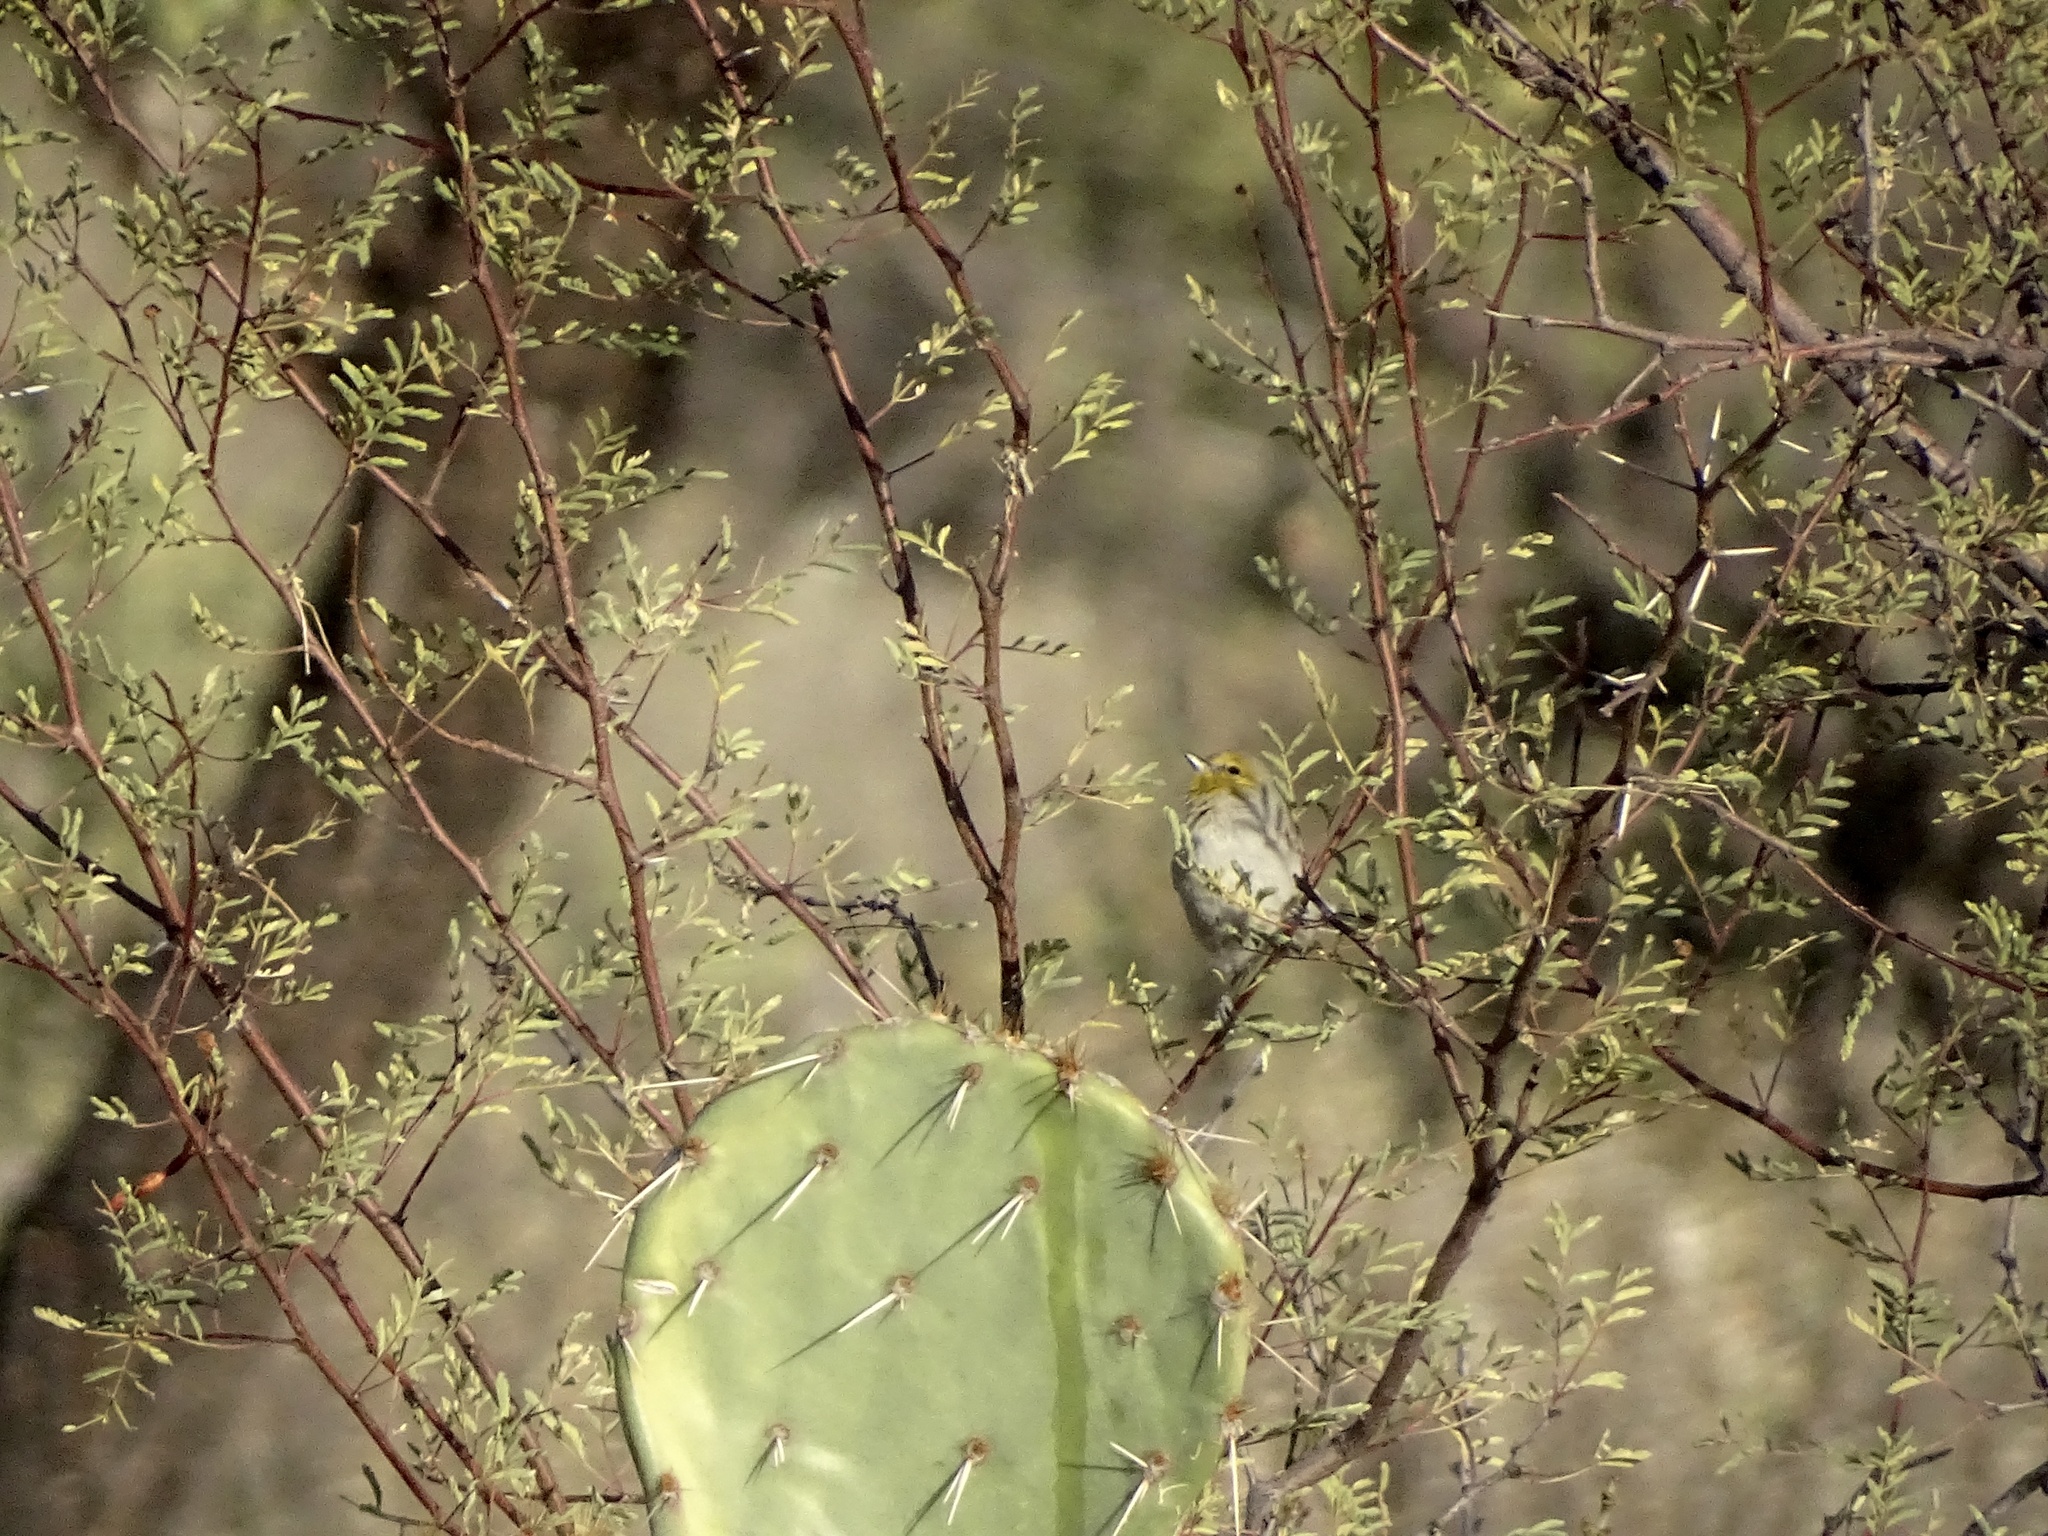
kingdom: Animalia
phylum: Chordata
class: Aves
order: Passeriformes
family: Remizidae
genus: Auriparus
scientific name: Auriparus flaviceps
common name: Verdin
